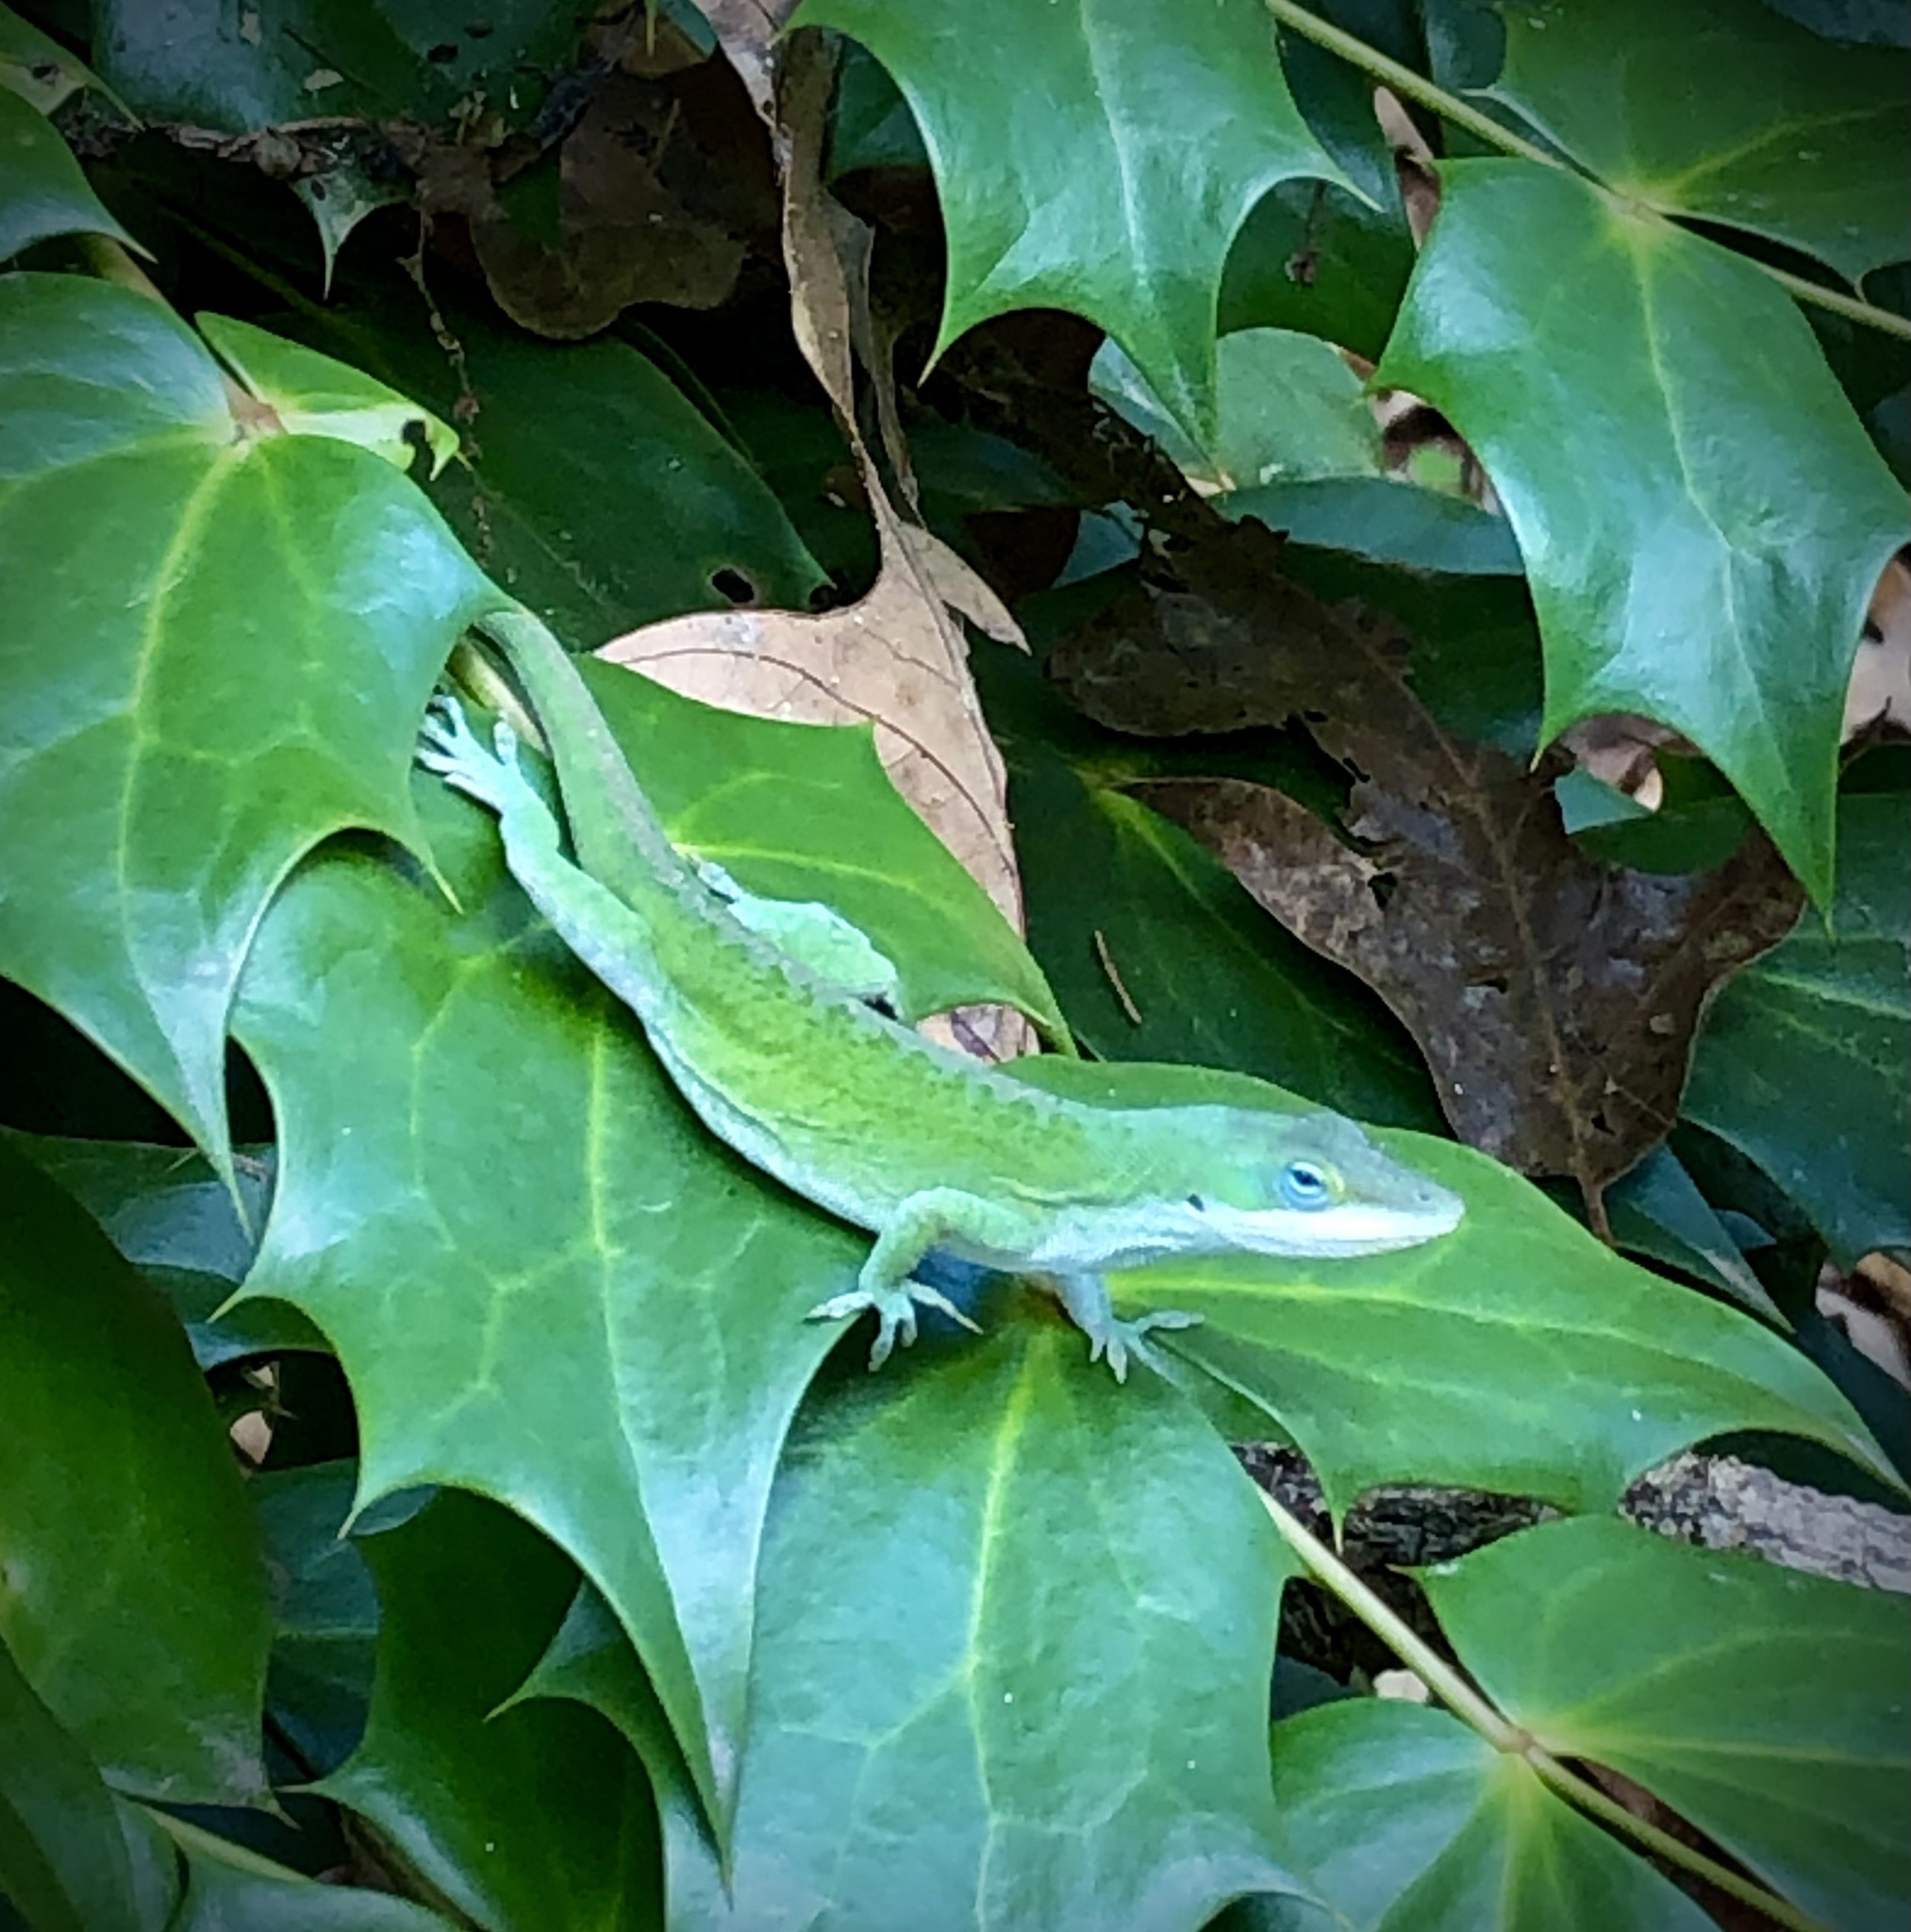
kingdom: Animalia
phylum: Chordata
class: Squamata
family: Dactyloidae
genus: Anolis
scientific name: Anolis carolinensis
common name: Green anole
